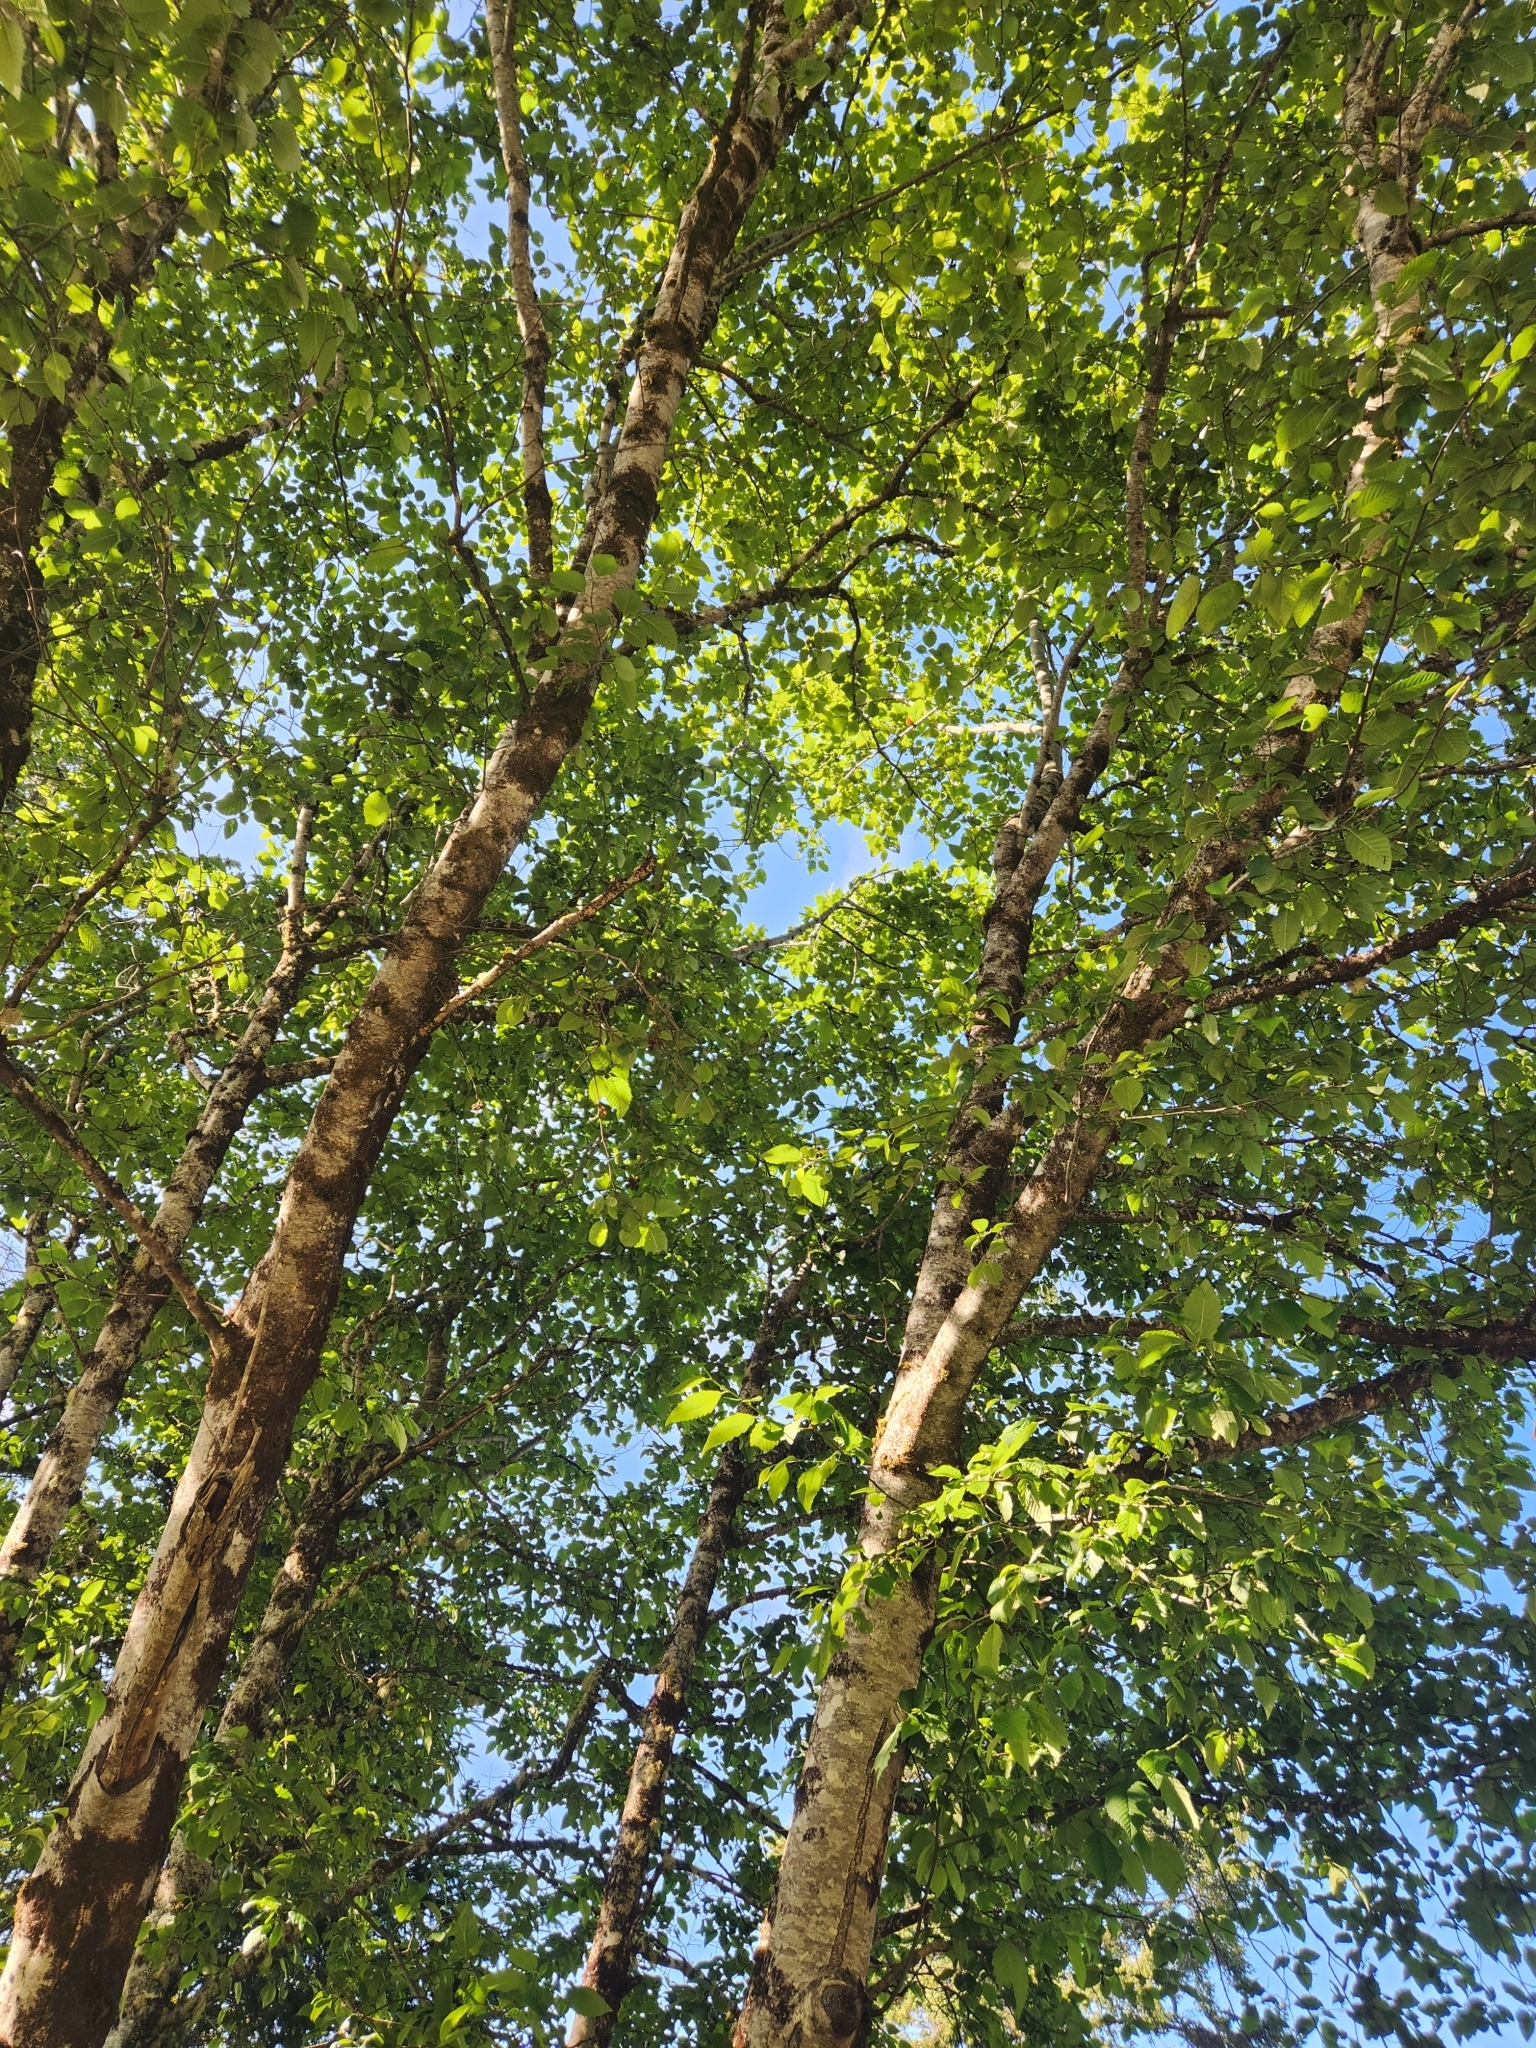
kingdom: Plantae
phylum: Tracheophyta
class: Magnoliopsida
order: Fagales
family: Betulaceae
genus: Alnus
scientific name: Alnus rubra
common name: Red alder
